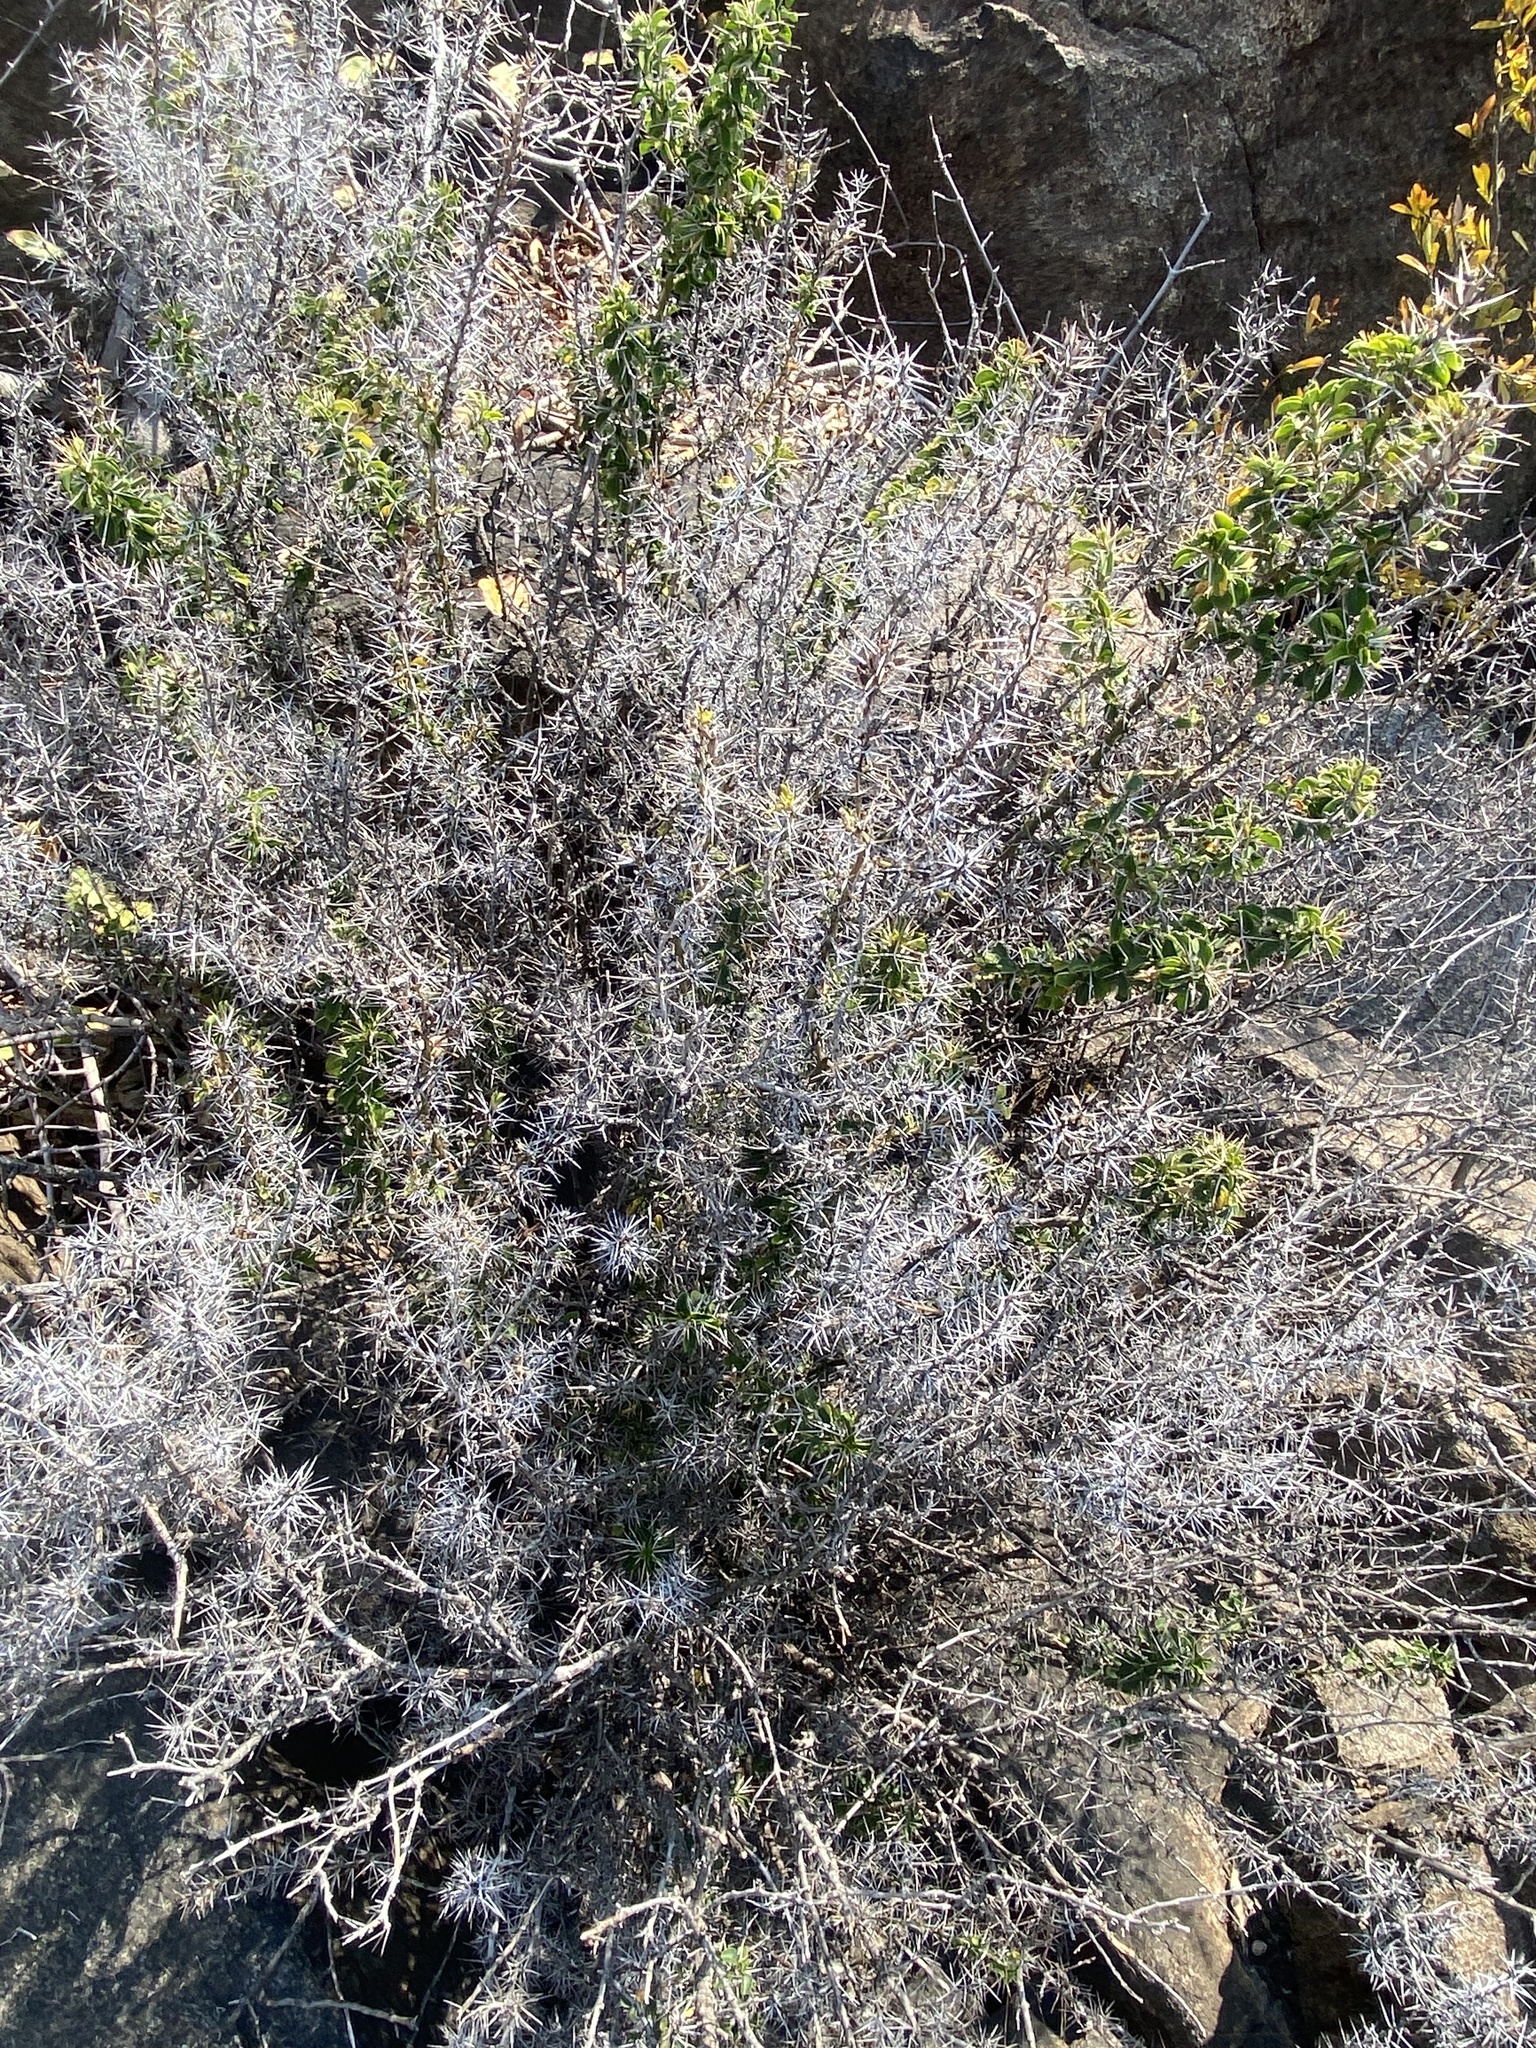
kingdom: Plantae
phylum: Tracheophyta
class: Magnoliopsida
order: Lamiales
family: Acanthaceae
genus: Barleria
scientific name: Barleria rotundifolia
